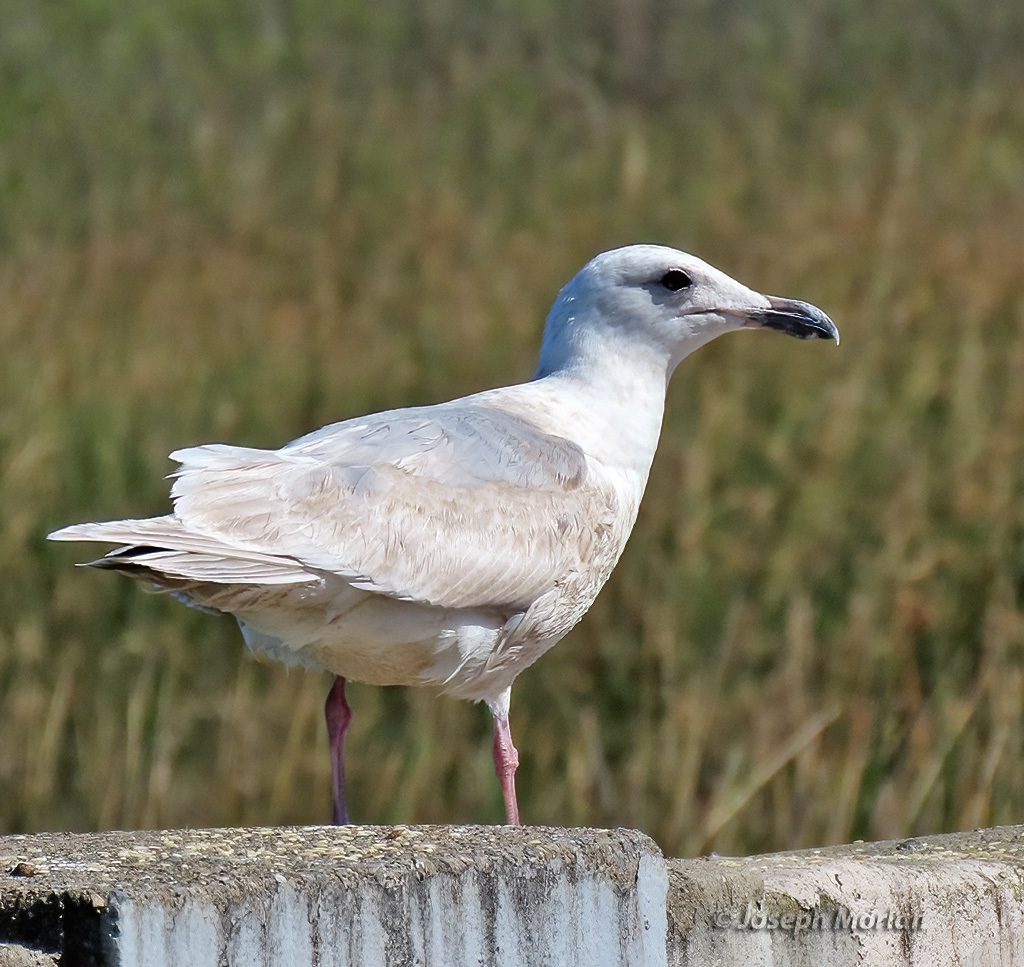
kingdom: Animalia
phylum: Chordata
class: Aves
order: Charadriiformes
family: Laridae
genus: Larus
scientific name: Larus glaucescens
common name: Glaucous-winged gull
